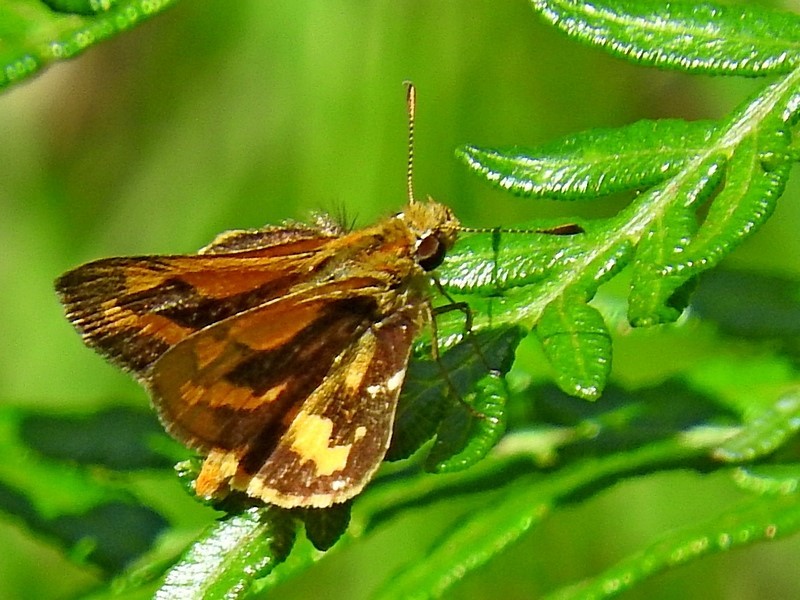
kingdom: Animalia
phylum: Arthropoda
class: Insecta
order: Lepidoptera
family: Hesperiidae
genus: Ocybadistes
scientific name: Ocybadistes walkeri
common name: Yellow-banded dart
